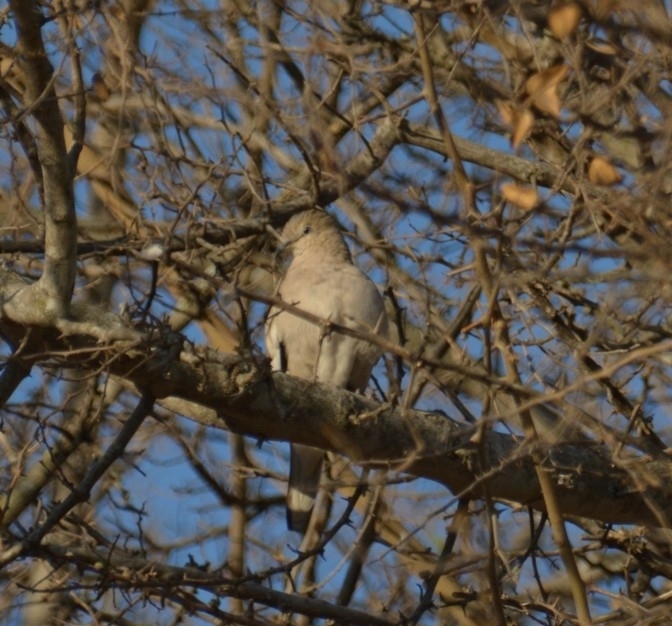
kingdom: Animalia
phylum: Chordata
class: Aves
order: Columbiformes
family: Columbidae
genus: Columbina
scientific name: Columbina picui
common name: Picui ground dove
